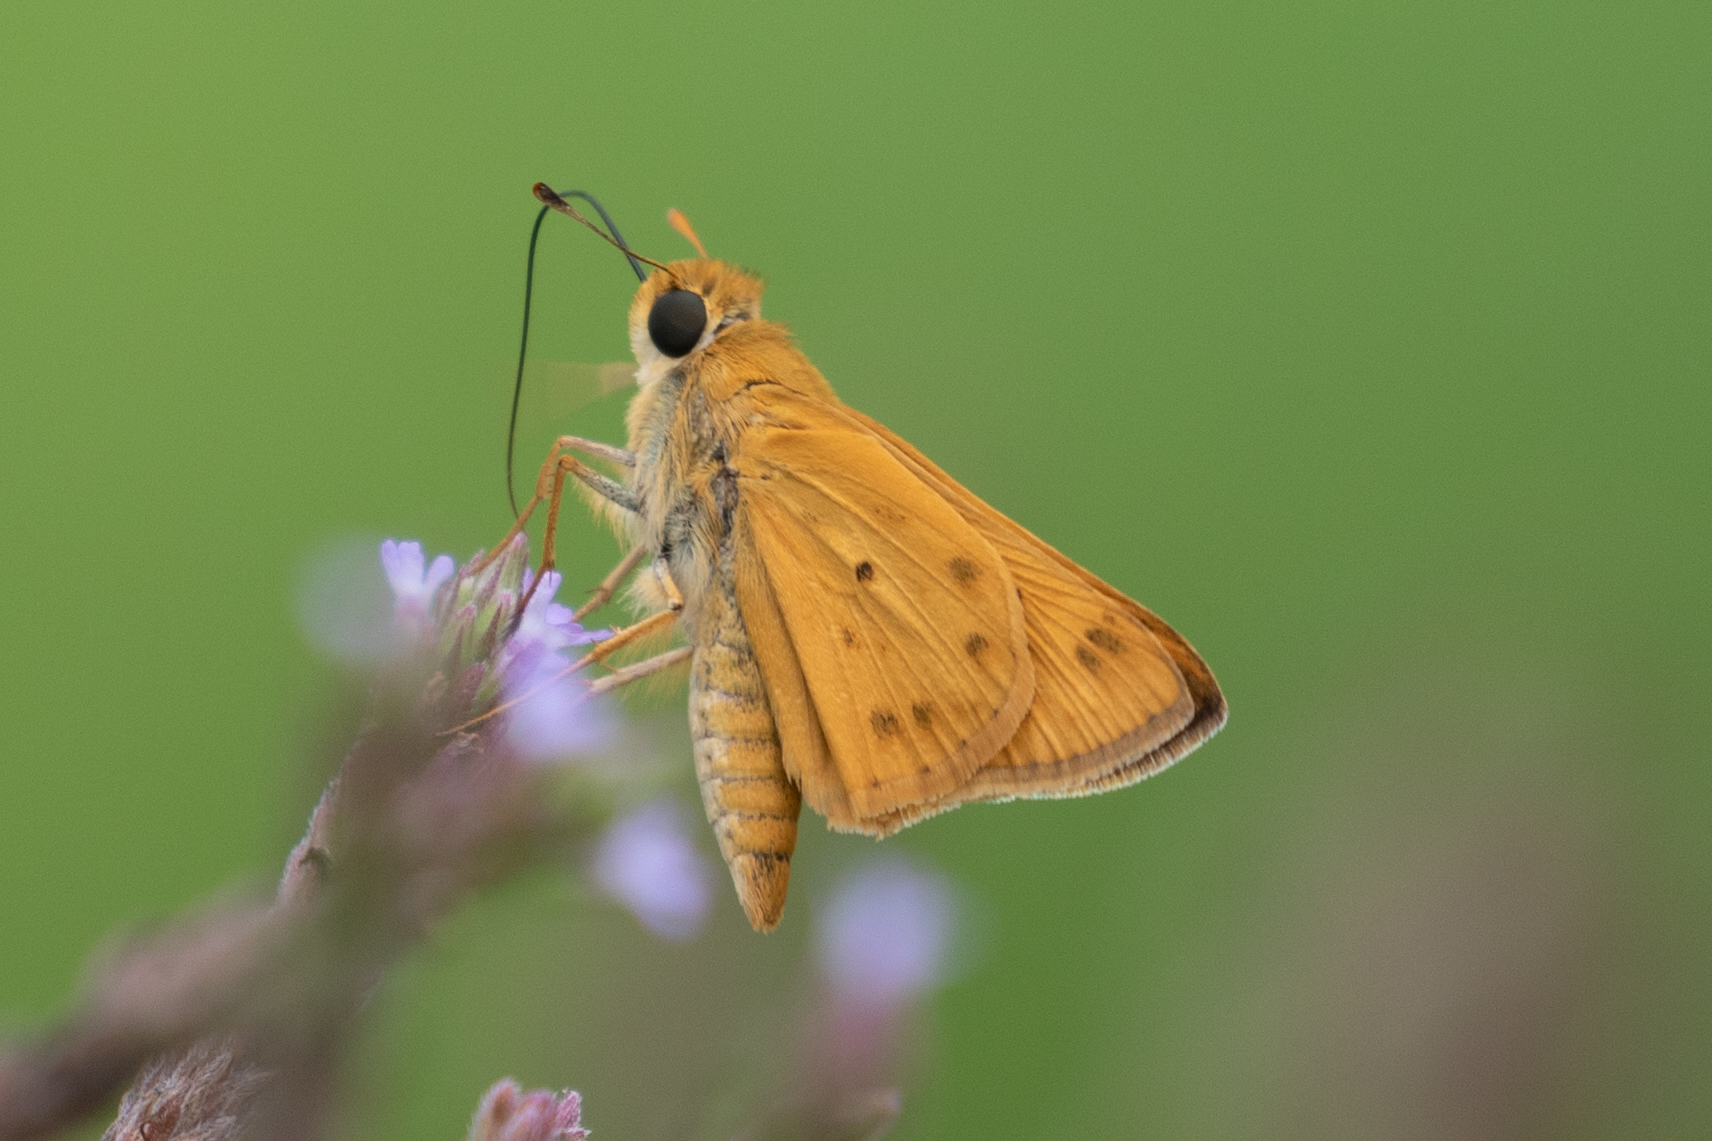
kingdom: Animalia
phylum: Arthropoda
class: Insecta
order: Lepidoptera
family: Hesperiidae
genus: Hylephila
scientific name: Hylephila phyleus
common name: Fiery skipper
